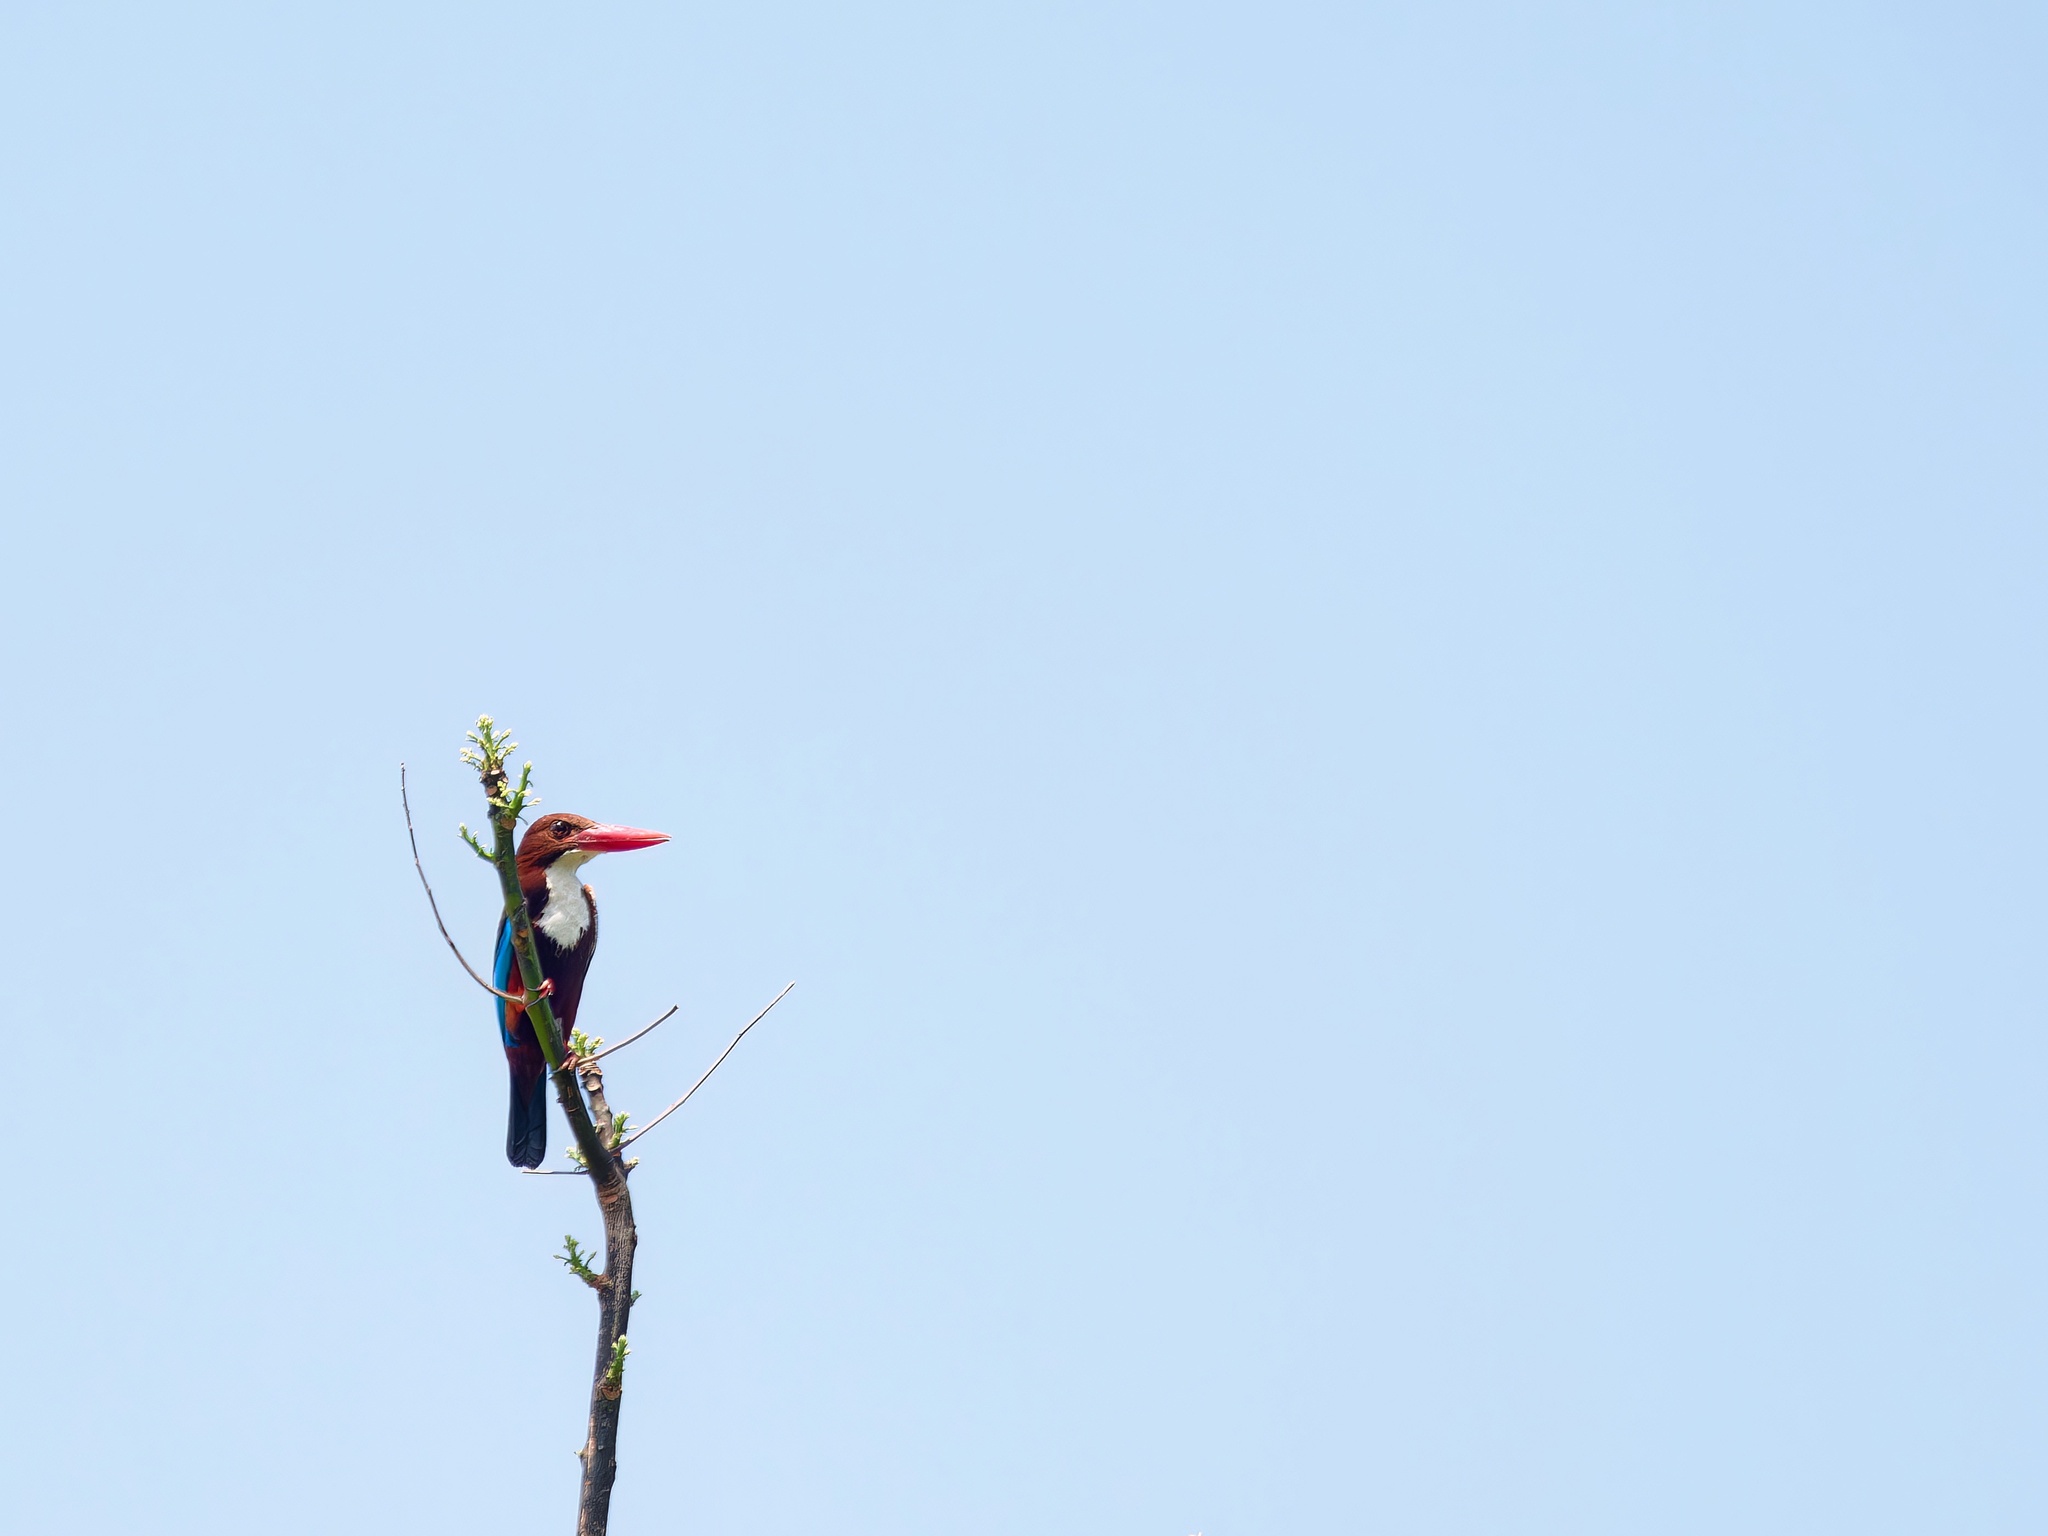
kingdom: Animalia
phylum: Chordata
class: Aves
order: Coraciiformes
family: Alcedinidae
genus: Halcyon
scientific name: Halcyon smyrnensis
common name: White-throated kingfisher
